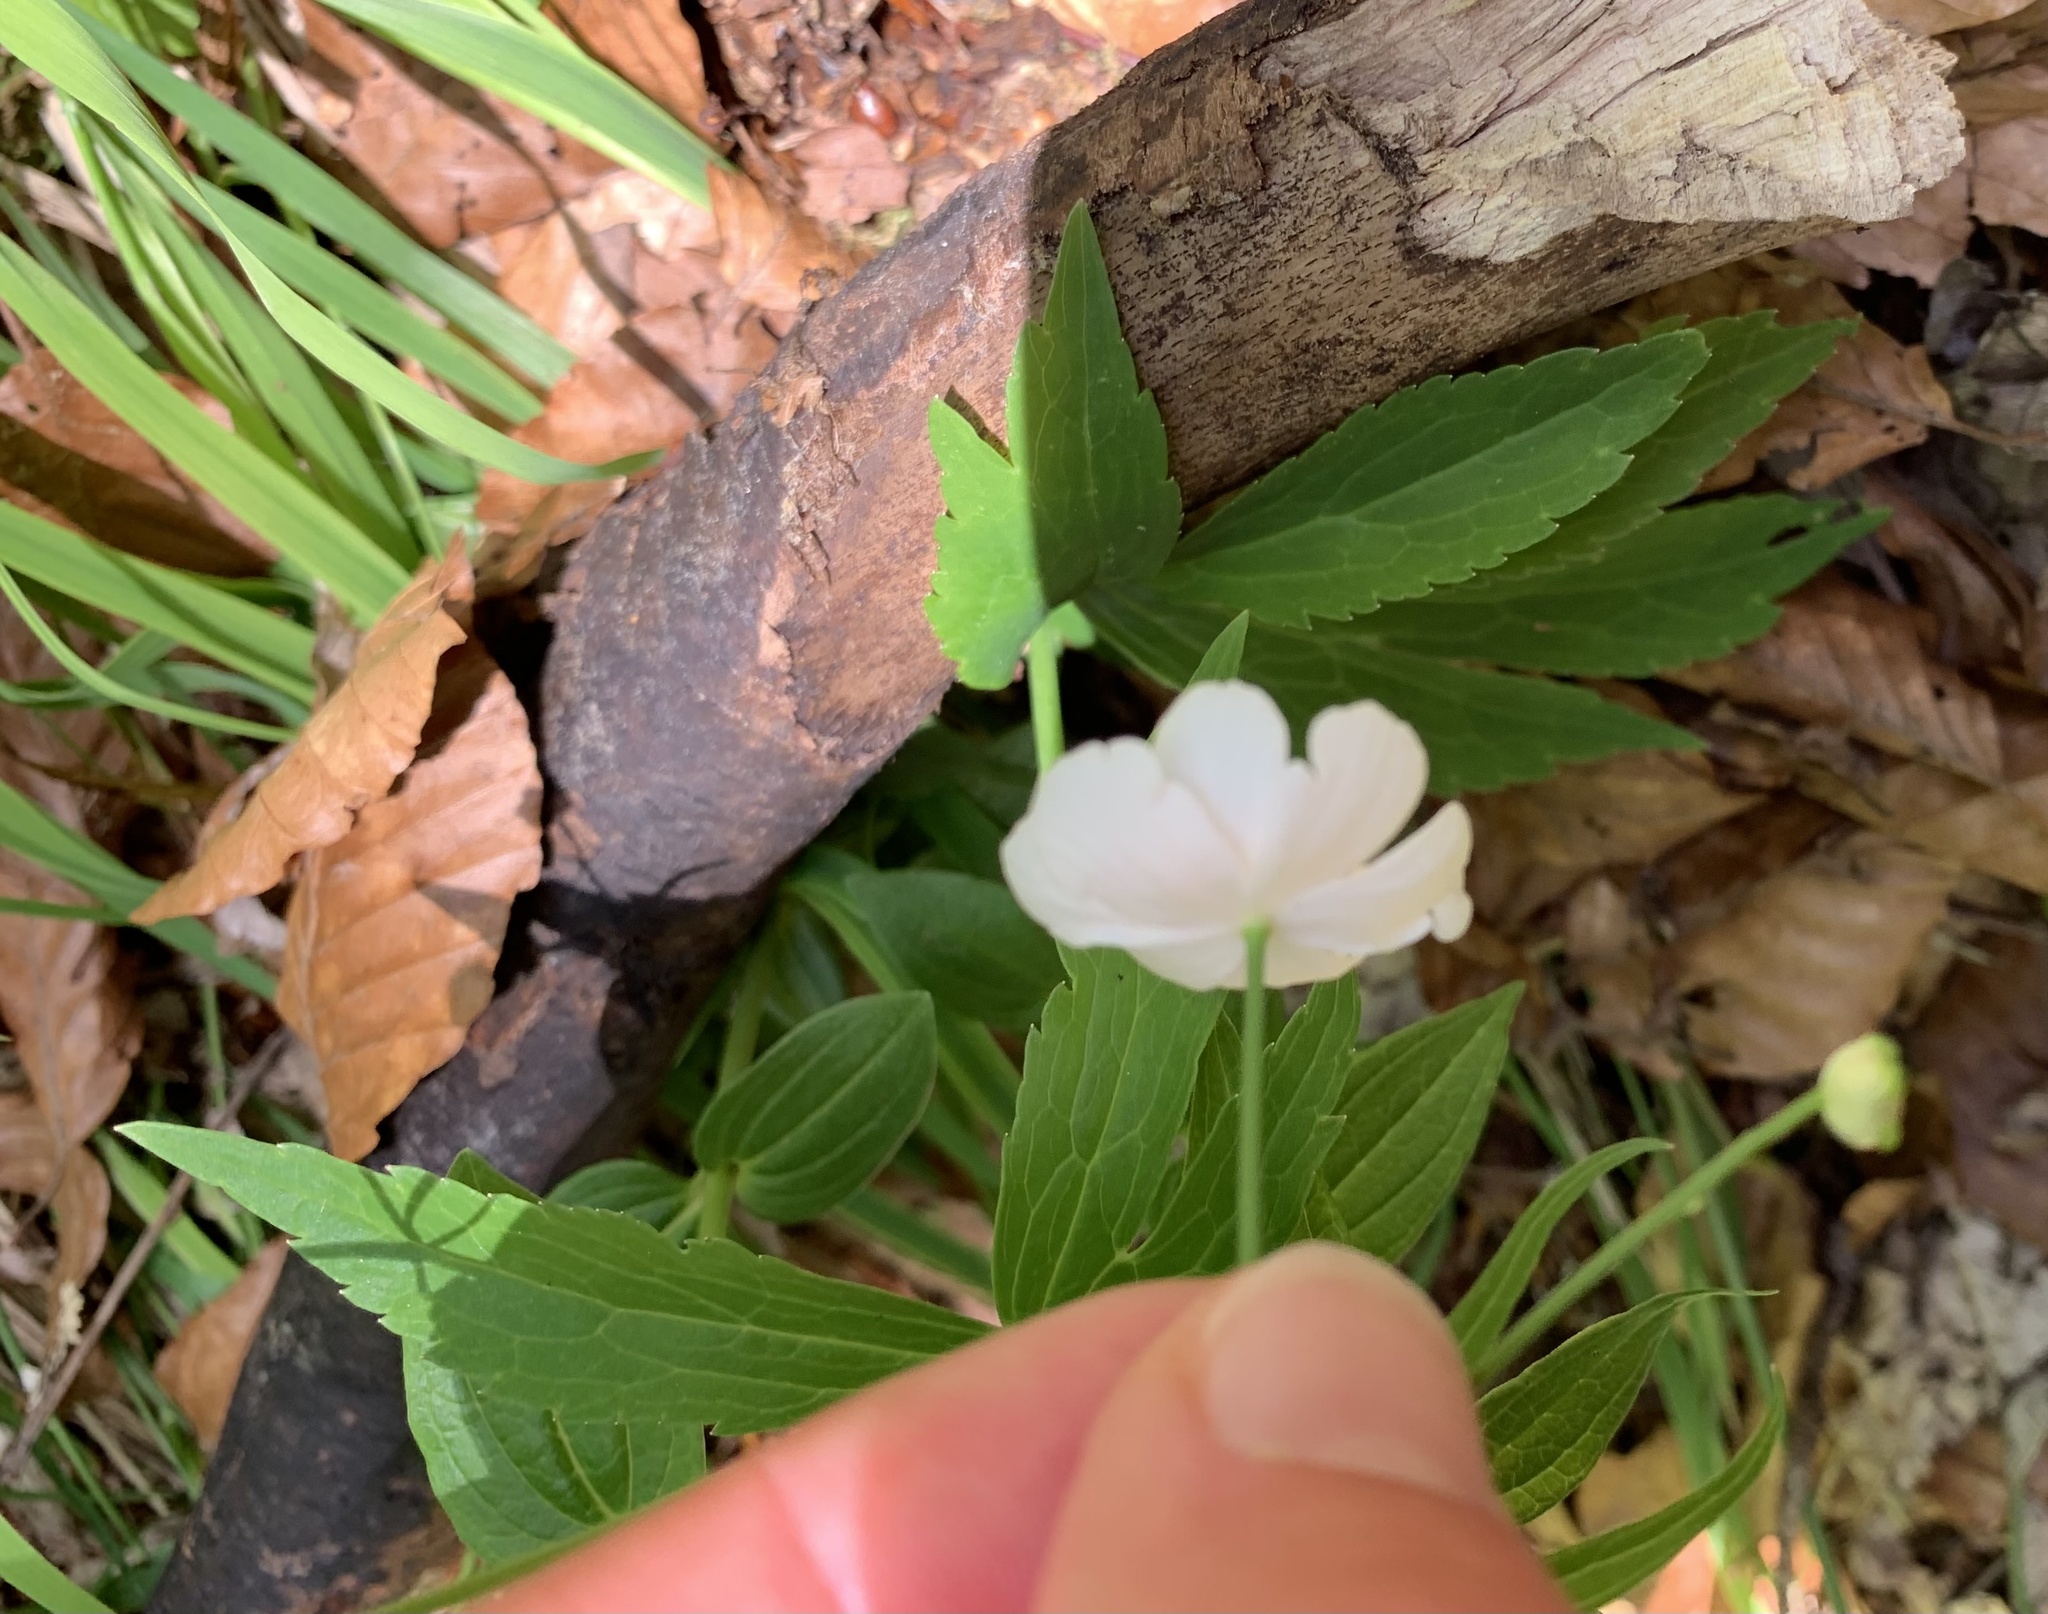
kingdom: Plantae
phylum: Tracheophyta
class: Magnoliopsida
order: Ranunculales
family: Ranunculaceae
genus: Ranunculus
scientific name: Ranunculus platanifolius
